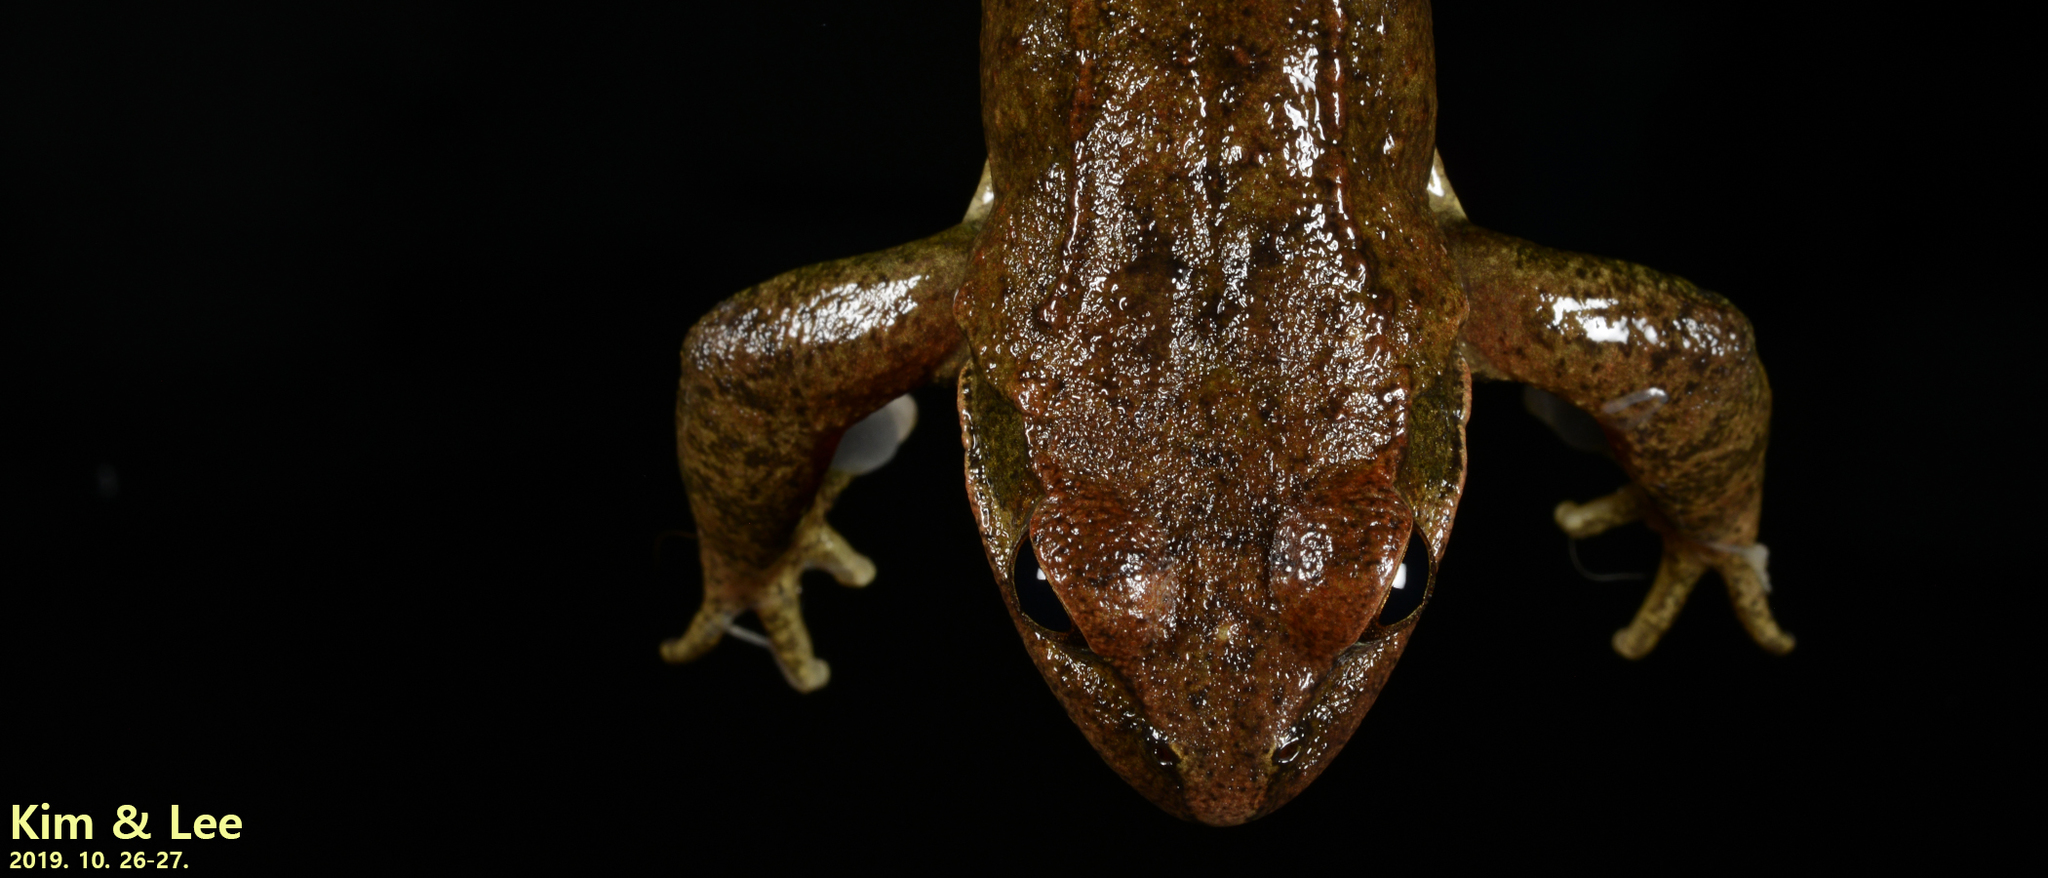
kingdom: Animalia
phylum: Chordata
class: Amphibia
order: Anura
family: Ranidae
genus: Rana
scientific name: Rana huanrenensis
